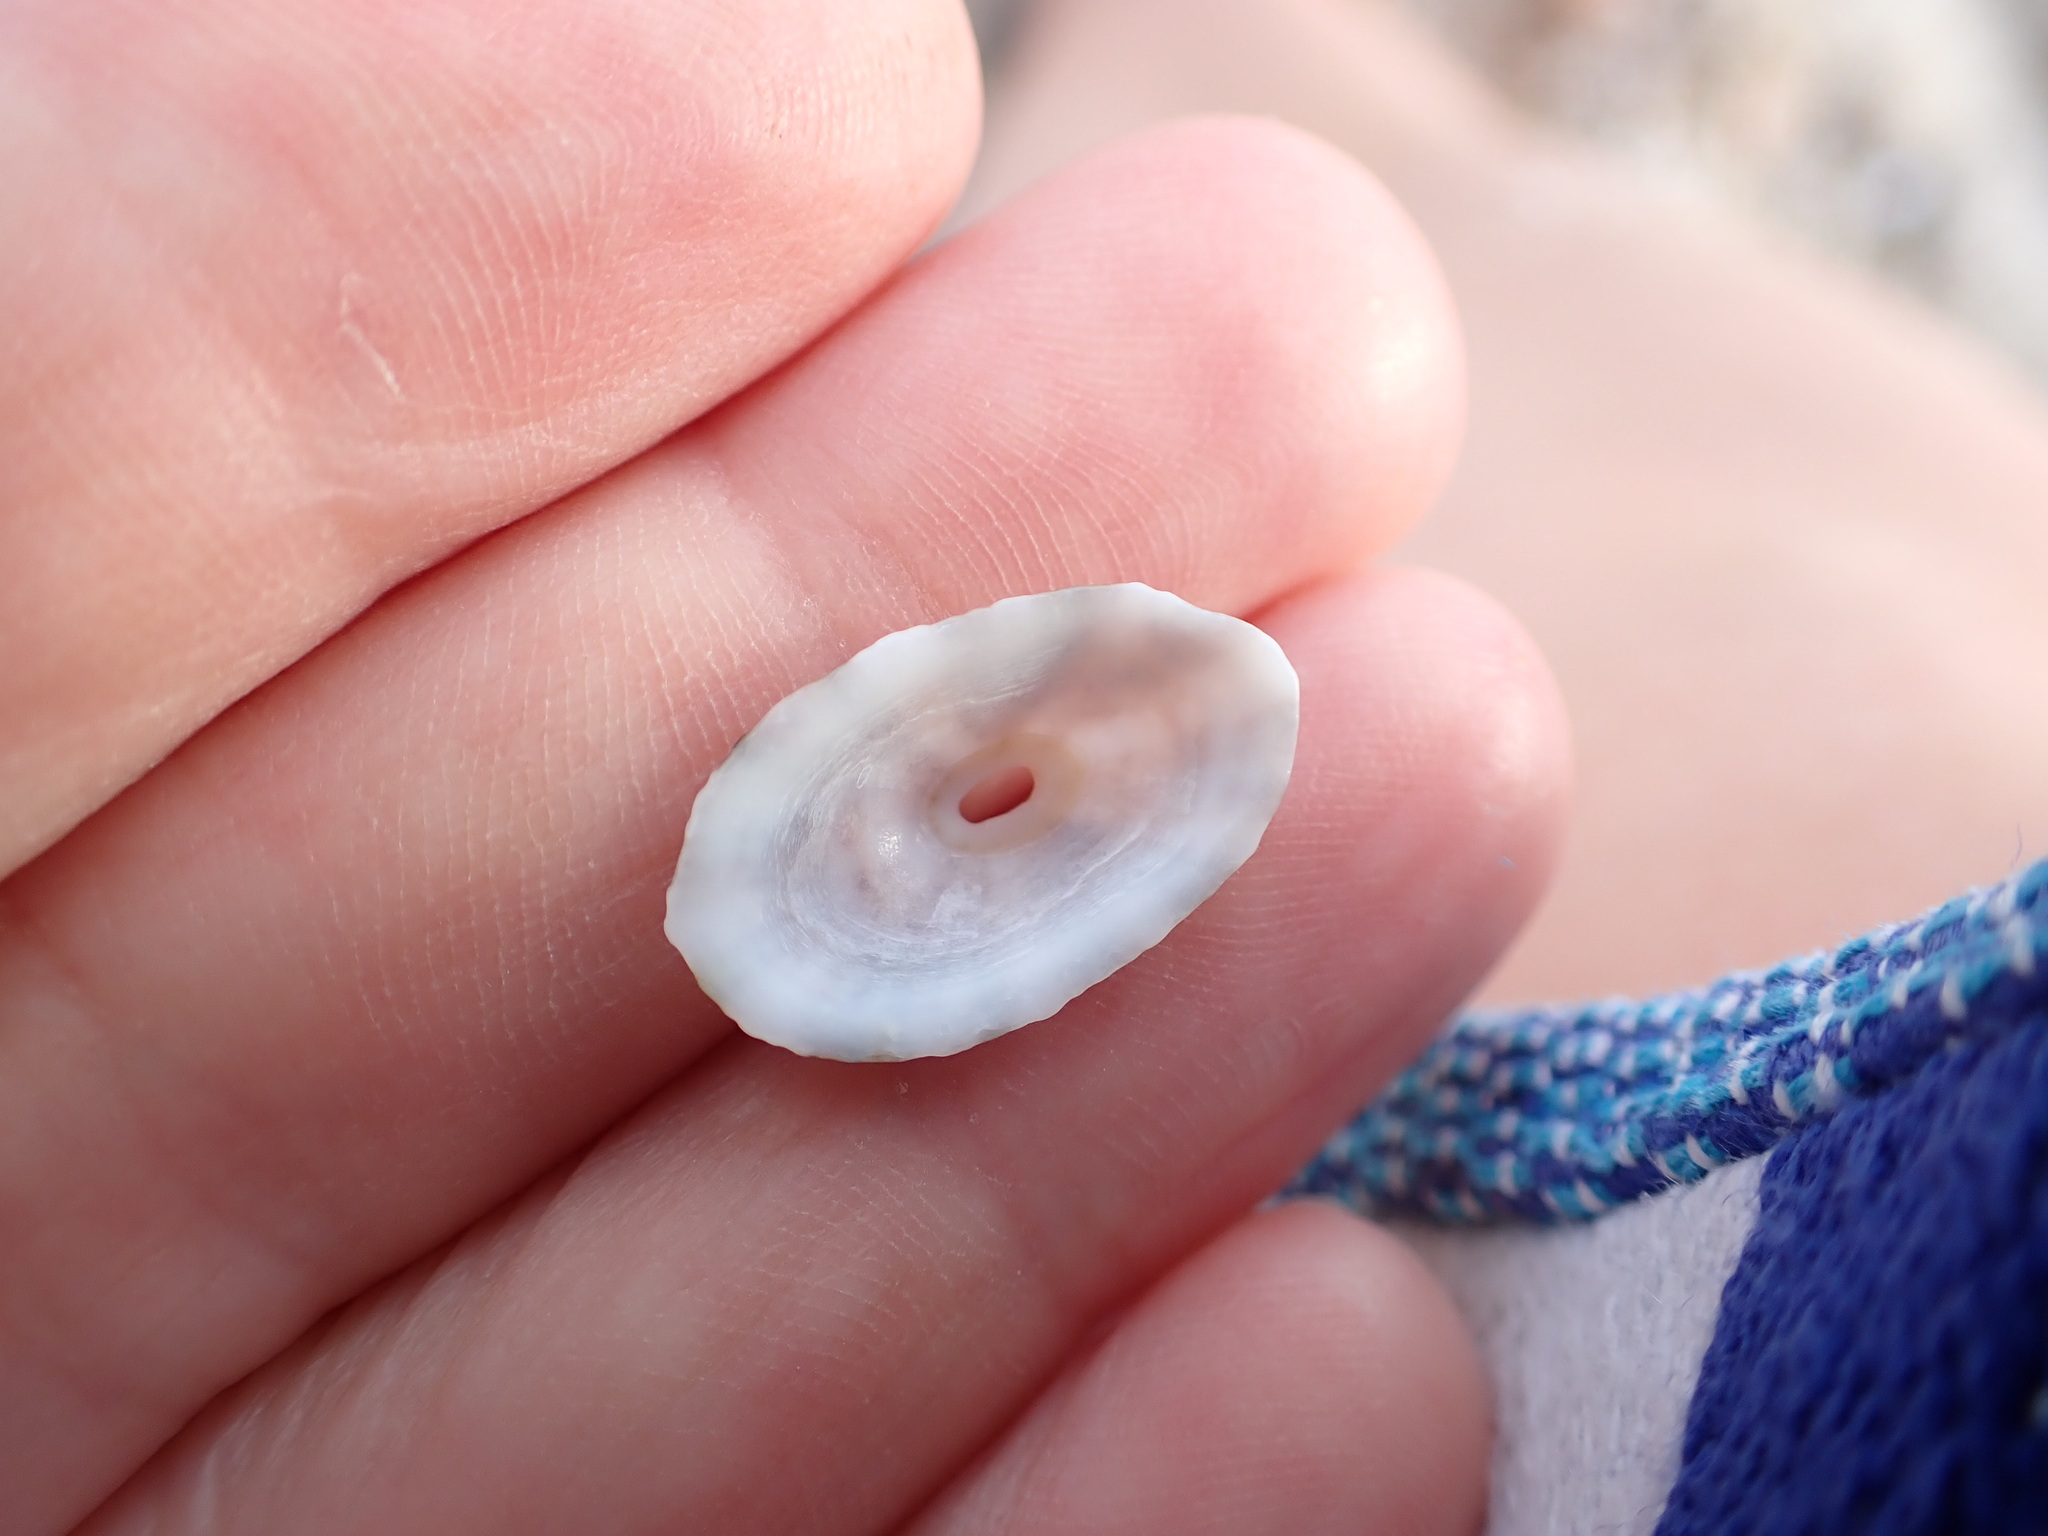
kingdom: Animalia
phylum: Mollusca
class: Gastropoda
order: Lepetellida
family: Fissurellidae
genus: Fissurella
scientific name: Fissurella nubecula
